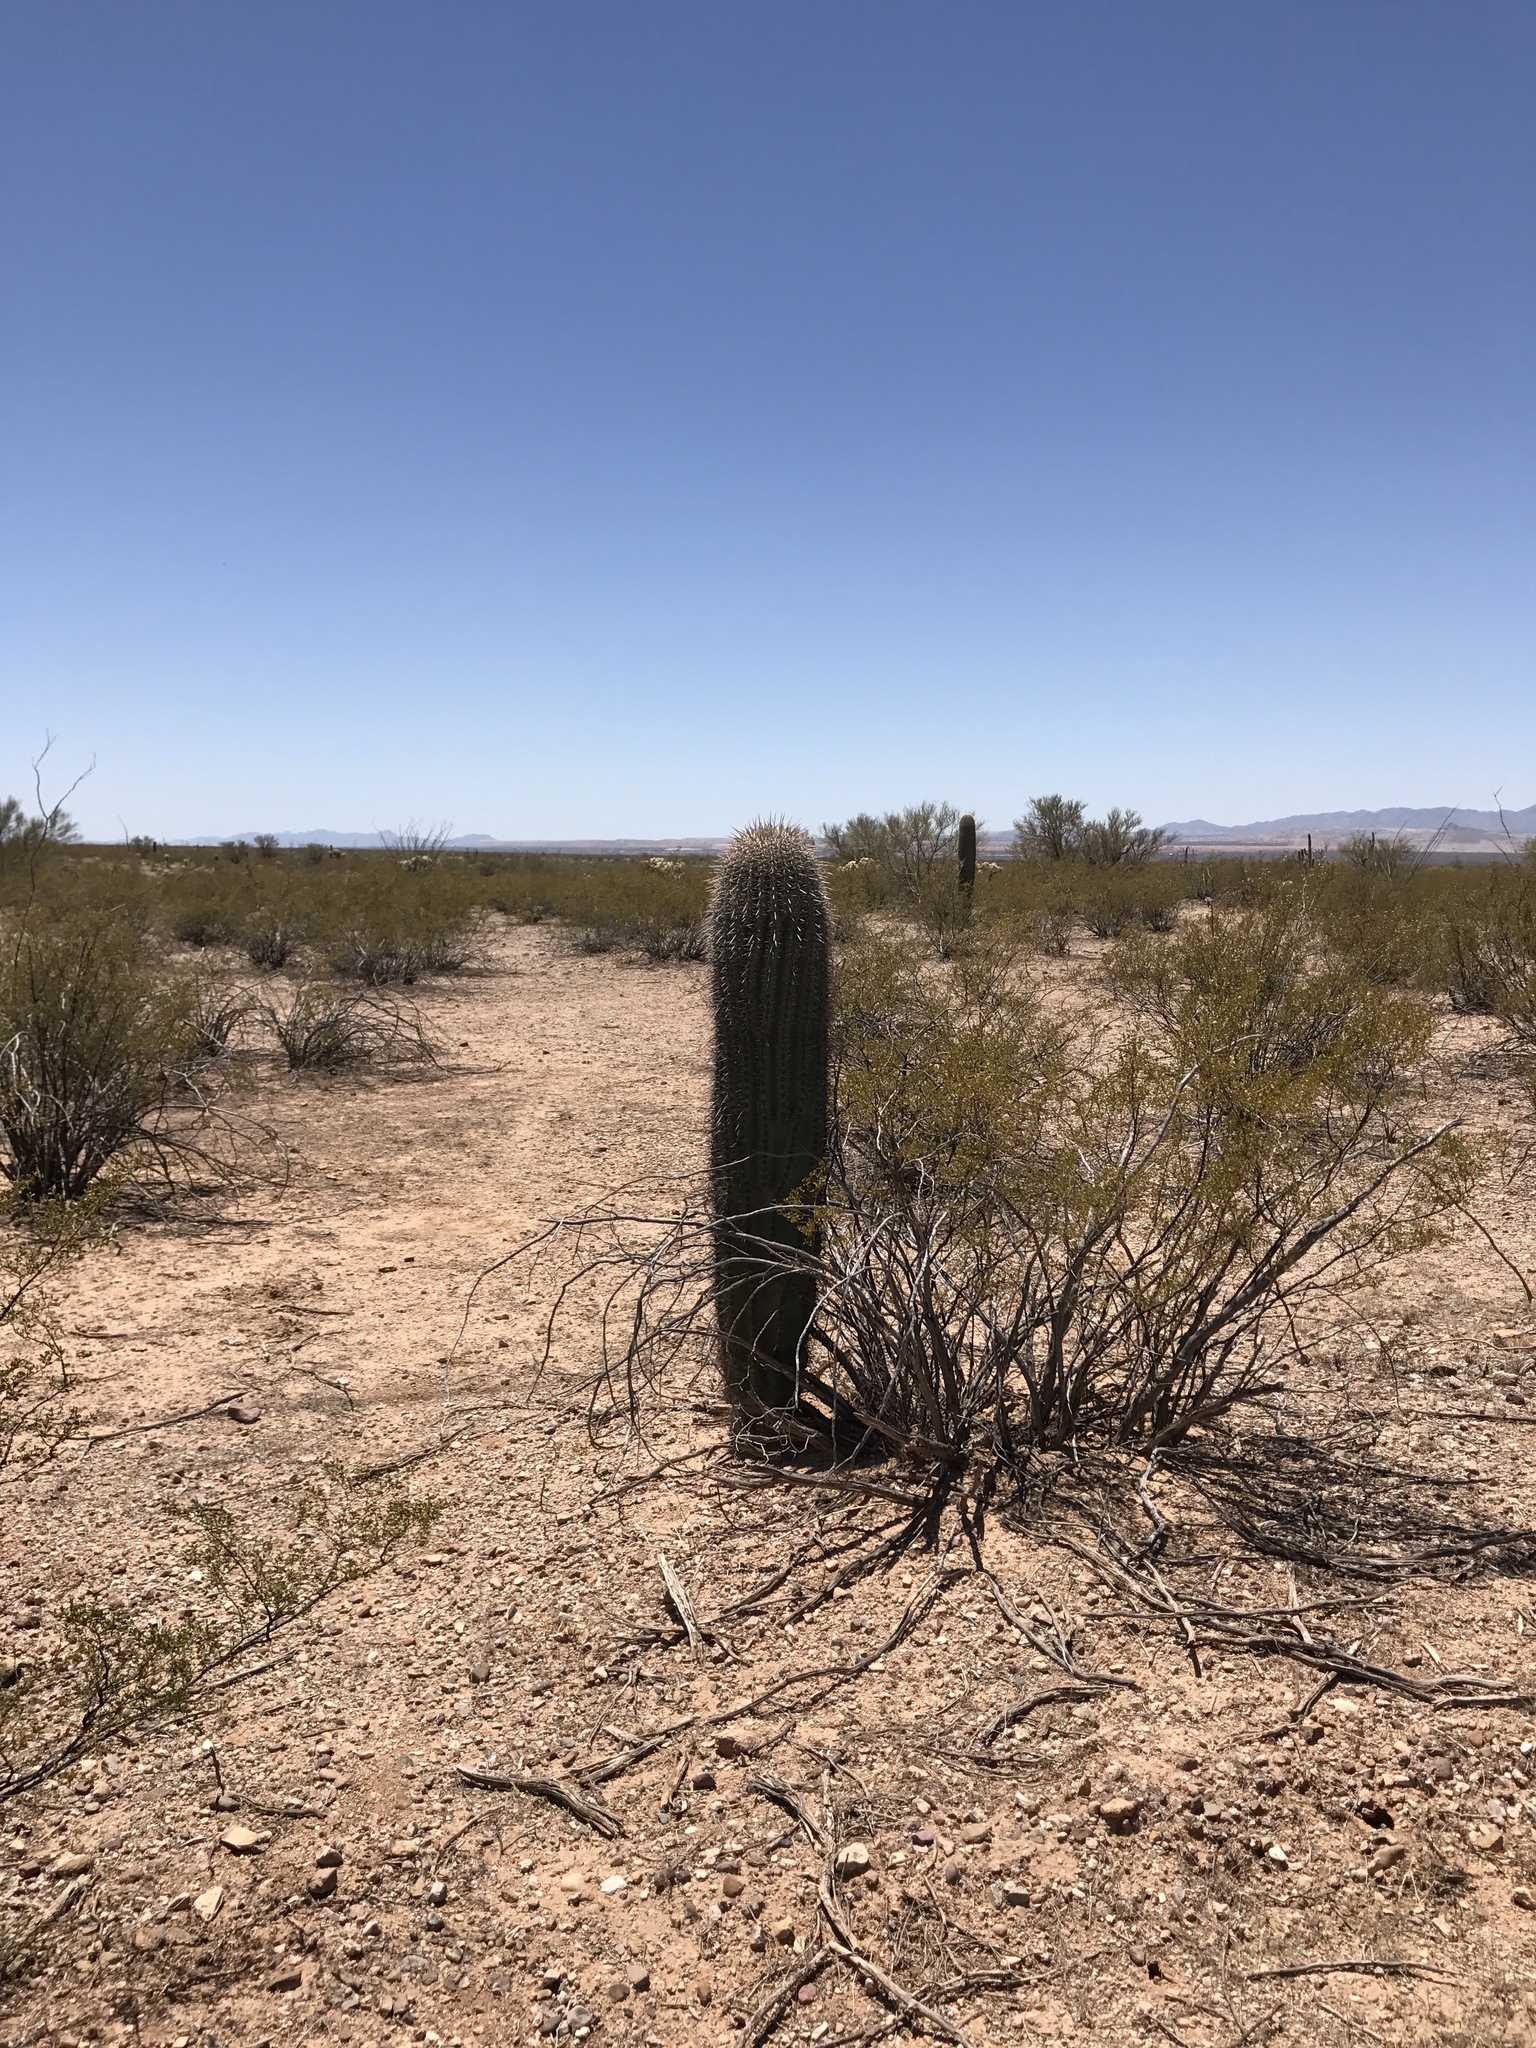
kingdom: Plantae
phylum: Tracheophyta
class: Magnoliopsida
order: Caryophyllales
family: Cactaceae
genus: Carnegiea
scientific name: Carnegiea gigantea
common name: Saguaro
